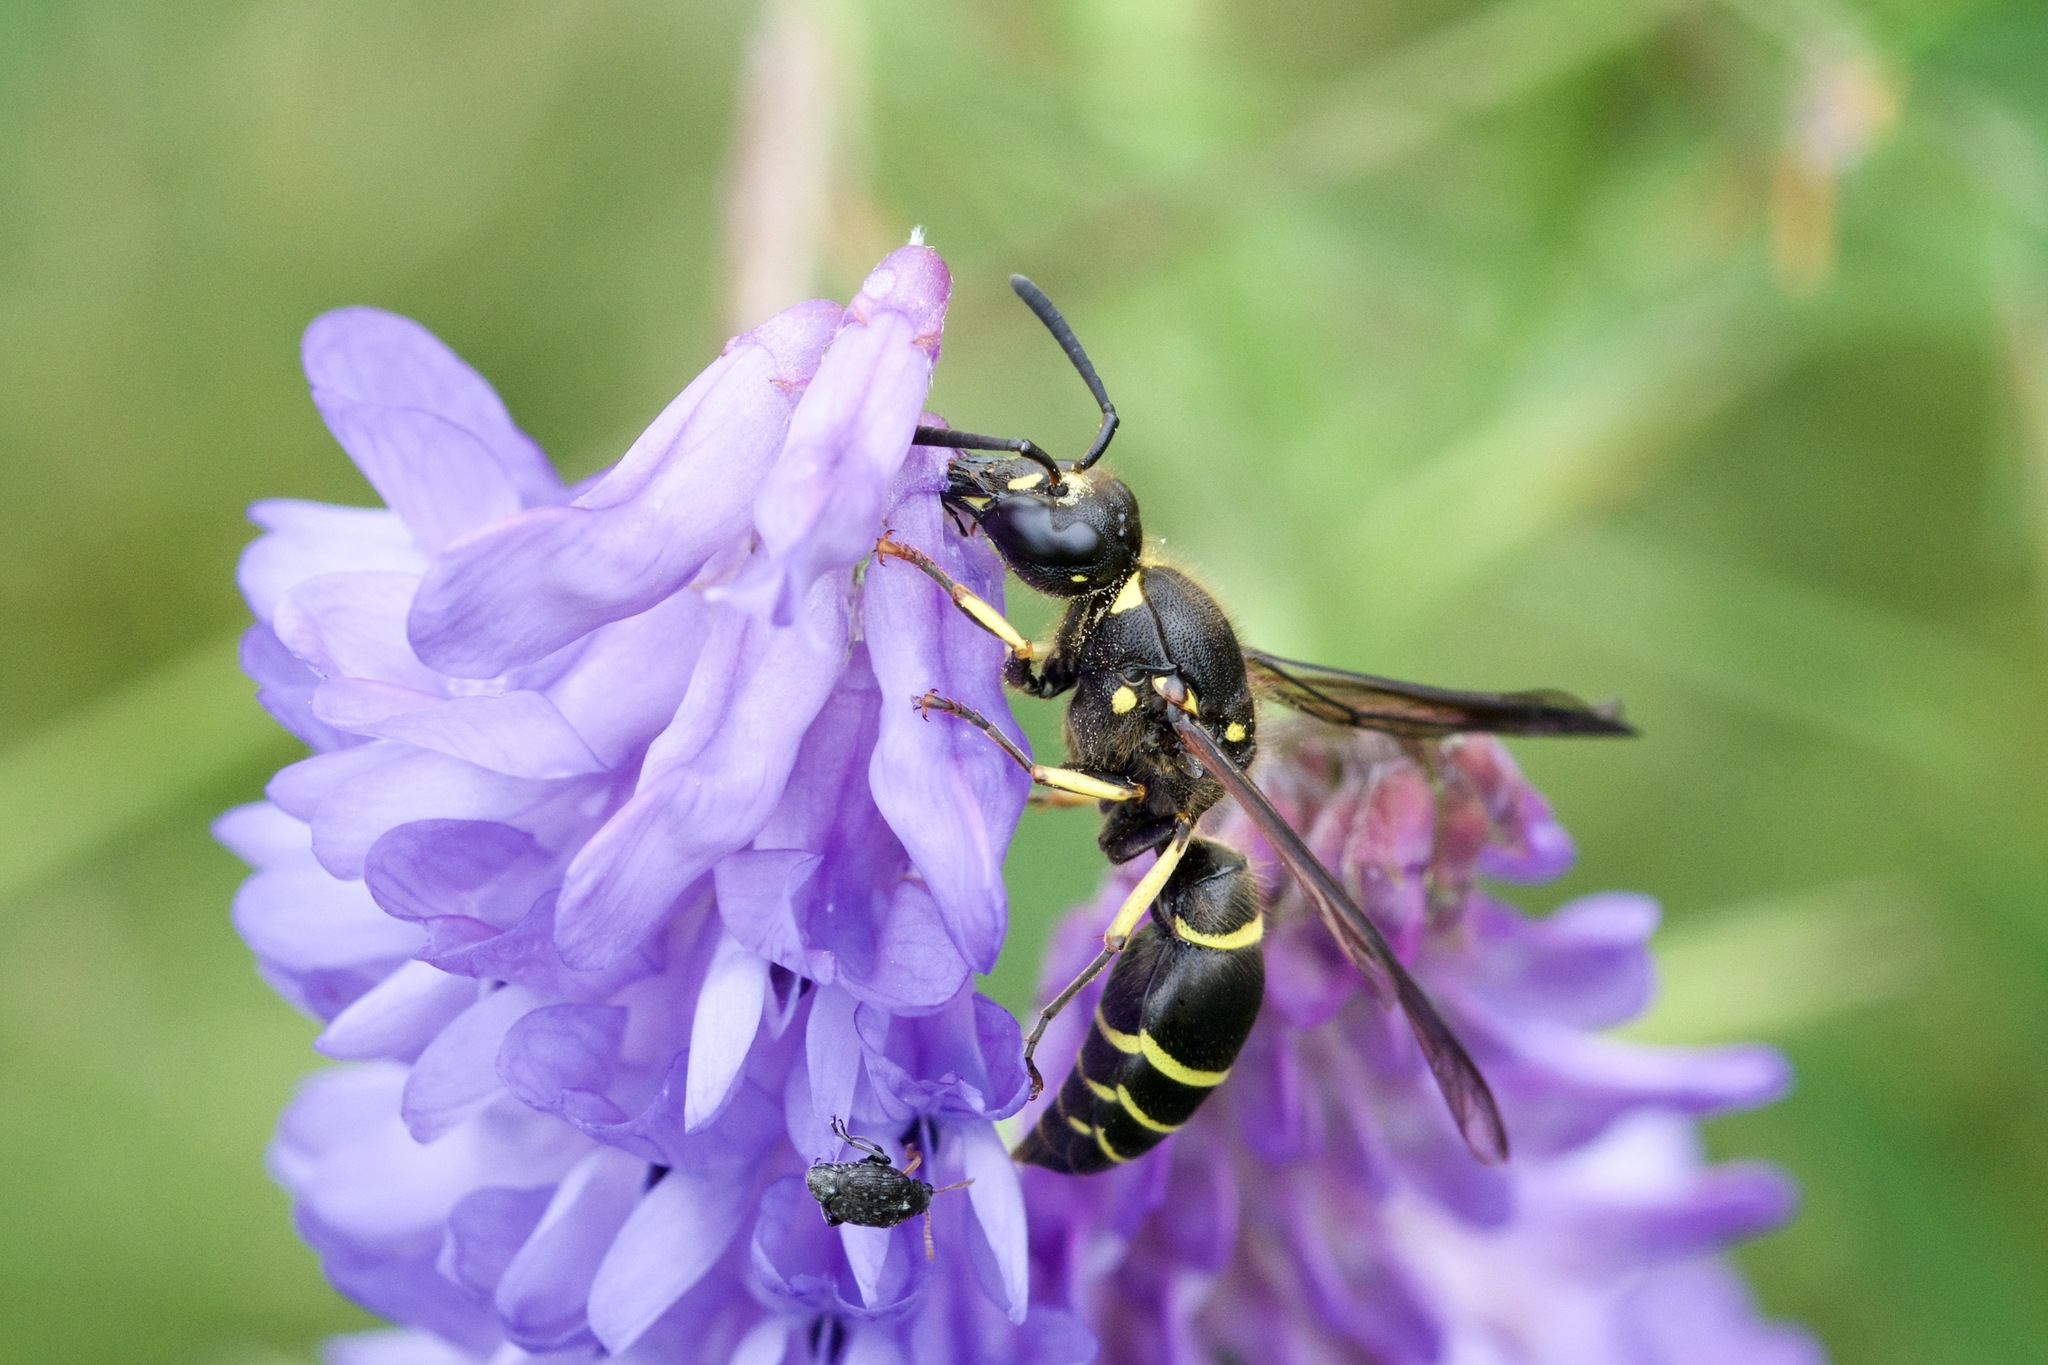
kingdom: Animalia
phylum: Arthropoda
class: Insecta
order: Hymenoptera
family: Vespidae
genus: Ancistrocerus
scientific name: Ancistrocerus
